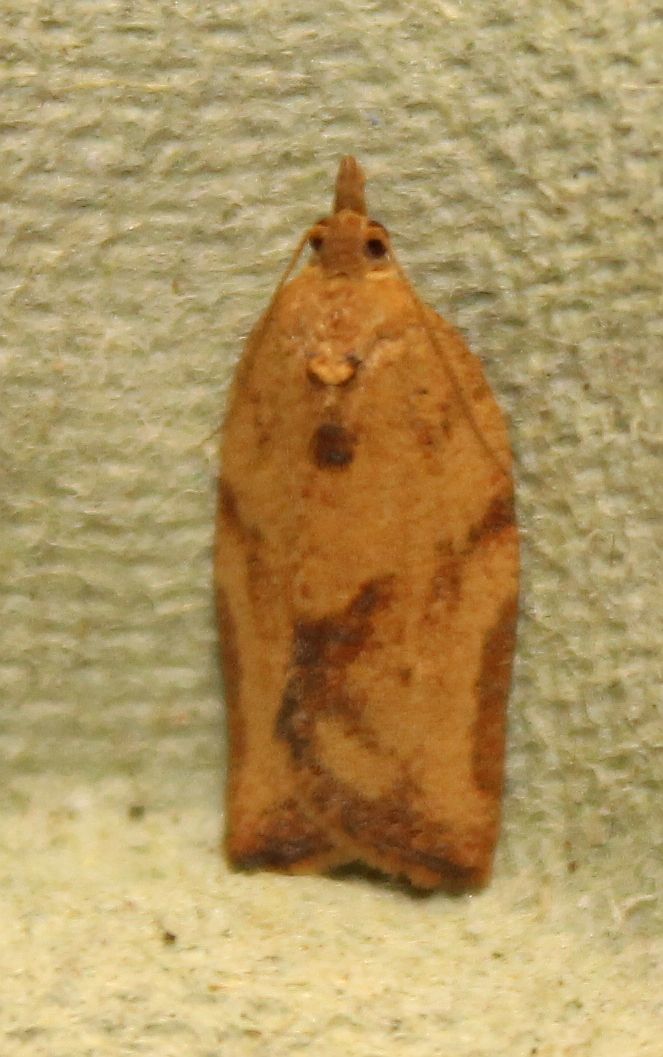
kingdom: Animalia
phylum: Arthropoda
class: Insecta
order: Lepidoptera
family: Tortricidae
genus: Epiphyas
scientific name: Epiphyas postvittana
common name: Light brown apple moth
